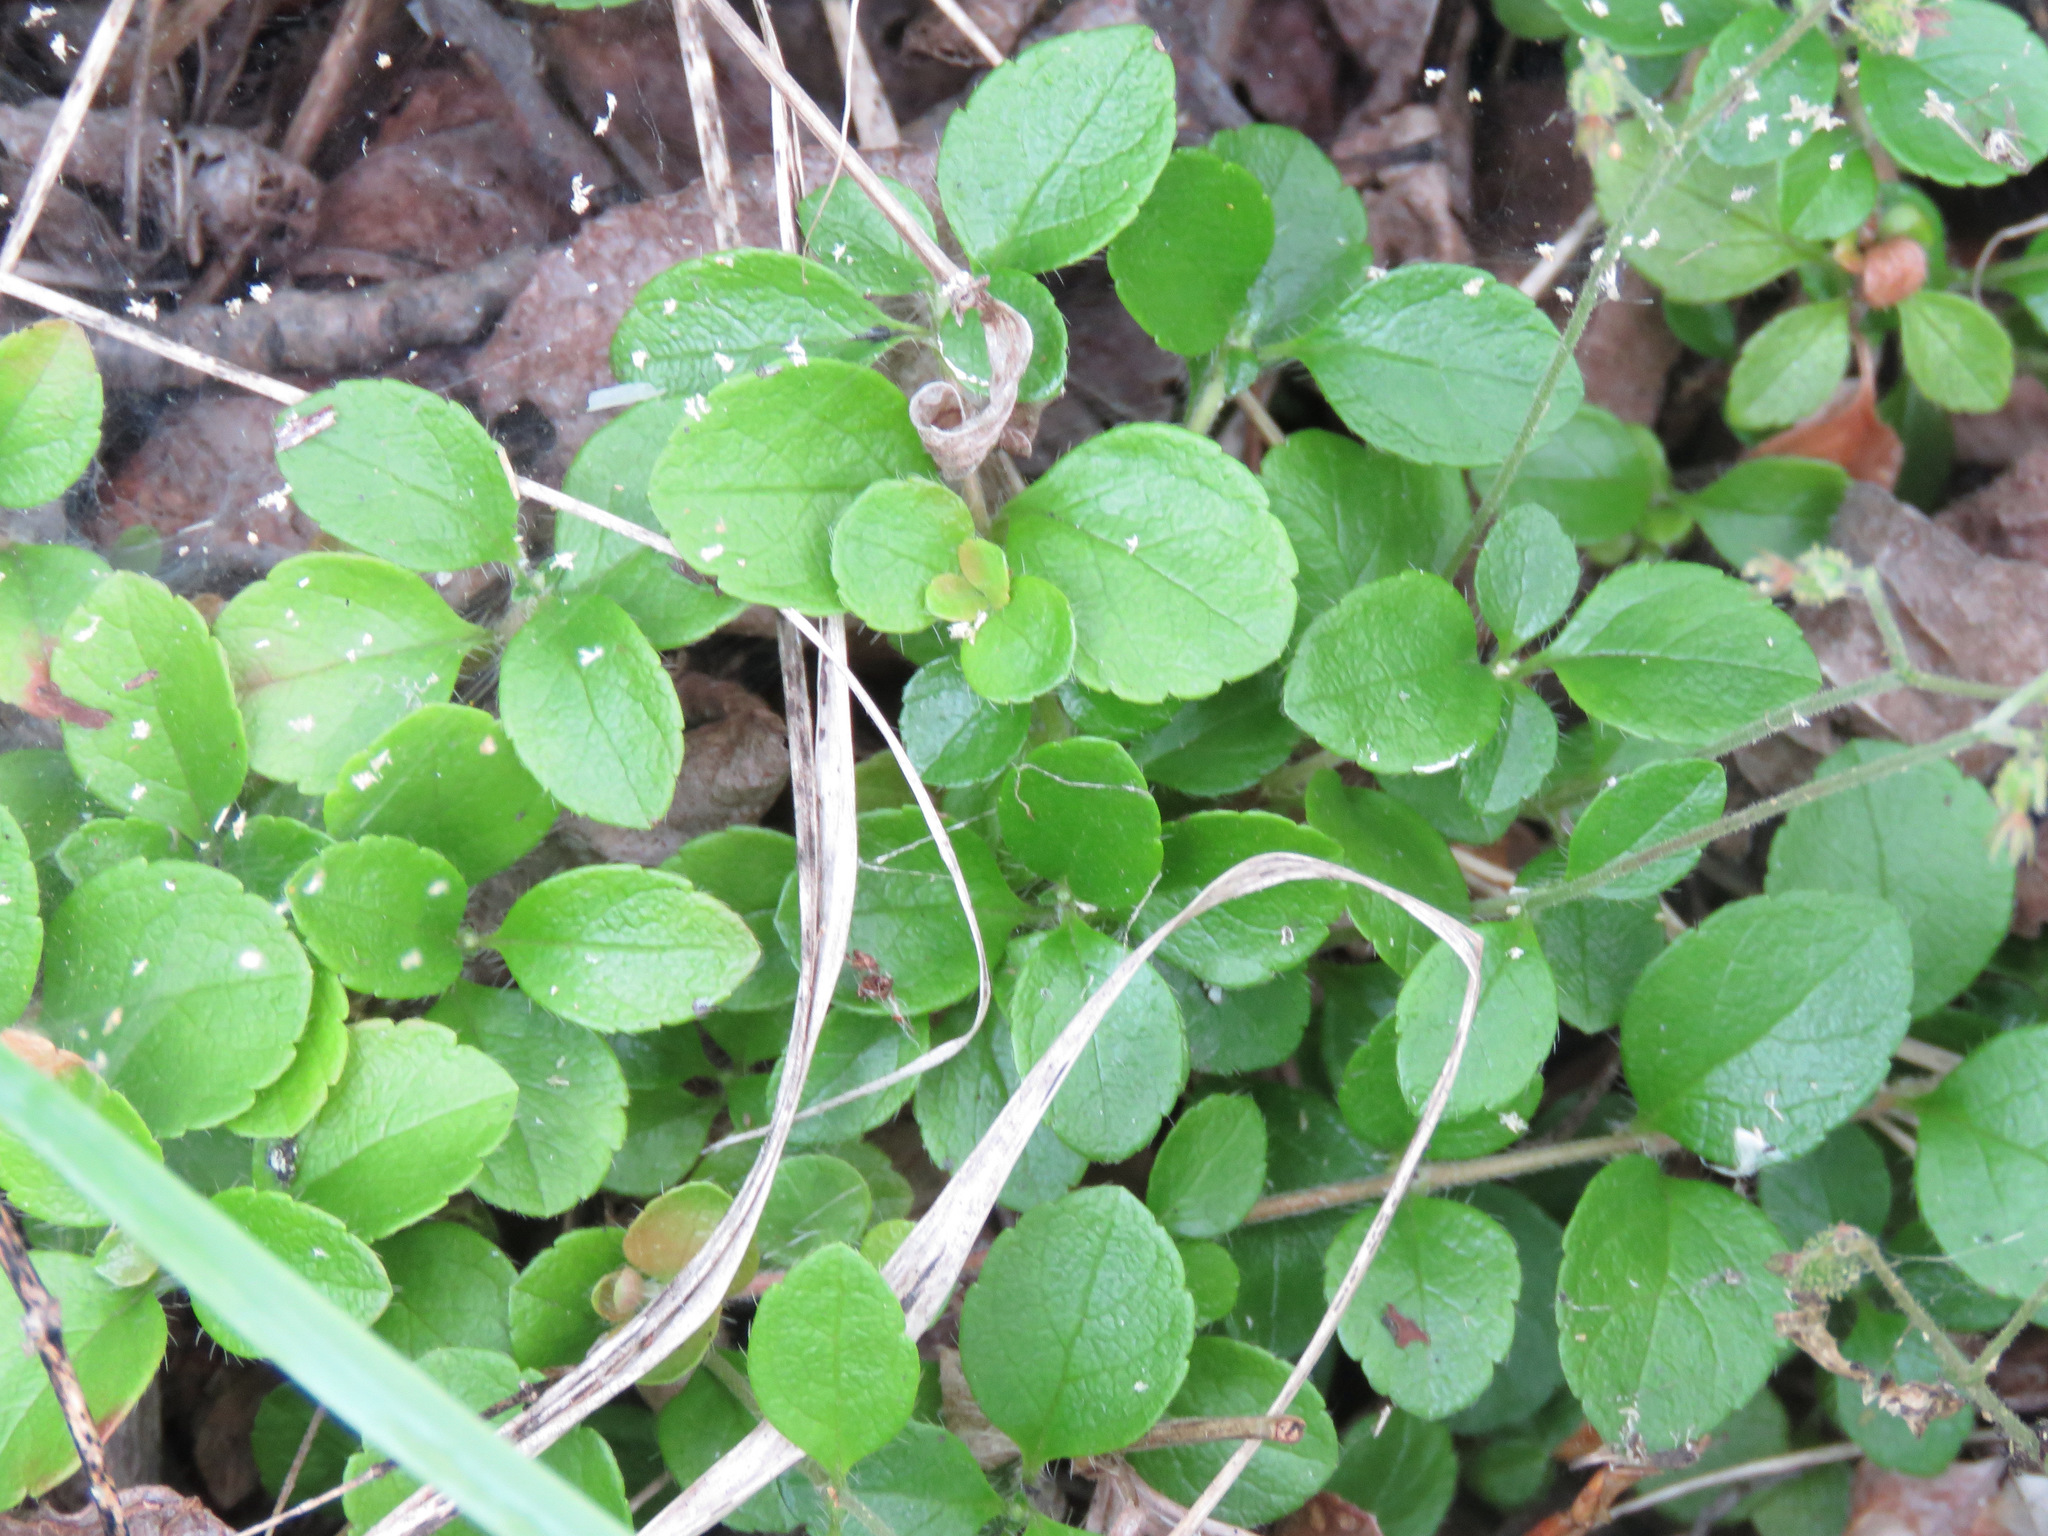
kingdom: Plantae
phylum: Tracheophyta
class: Magnoliopsida
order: Dipsacales
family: Caprifoliaceae
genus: Linnaea
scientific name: Linnaea borealis
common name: Twinflower
